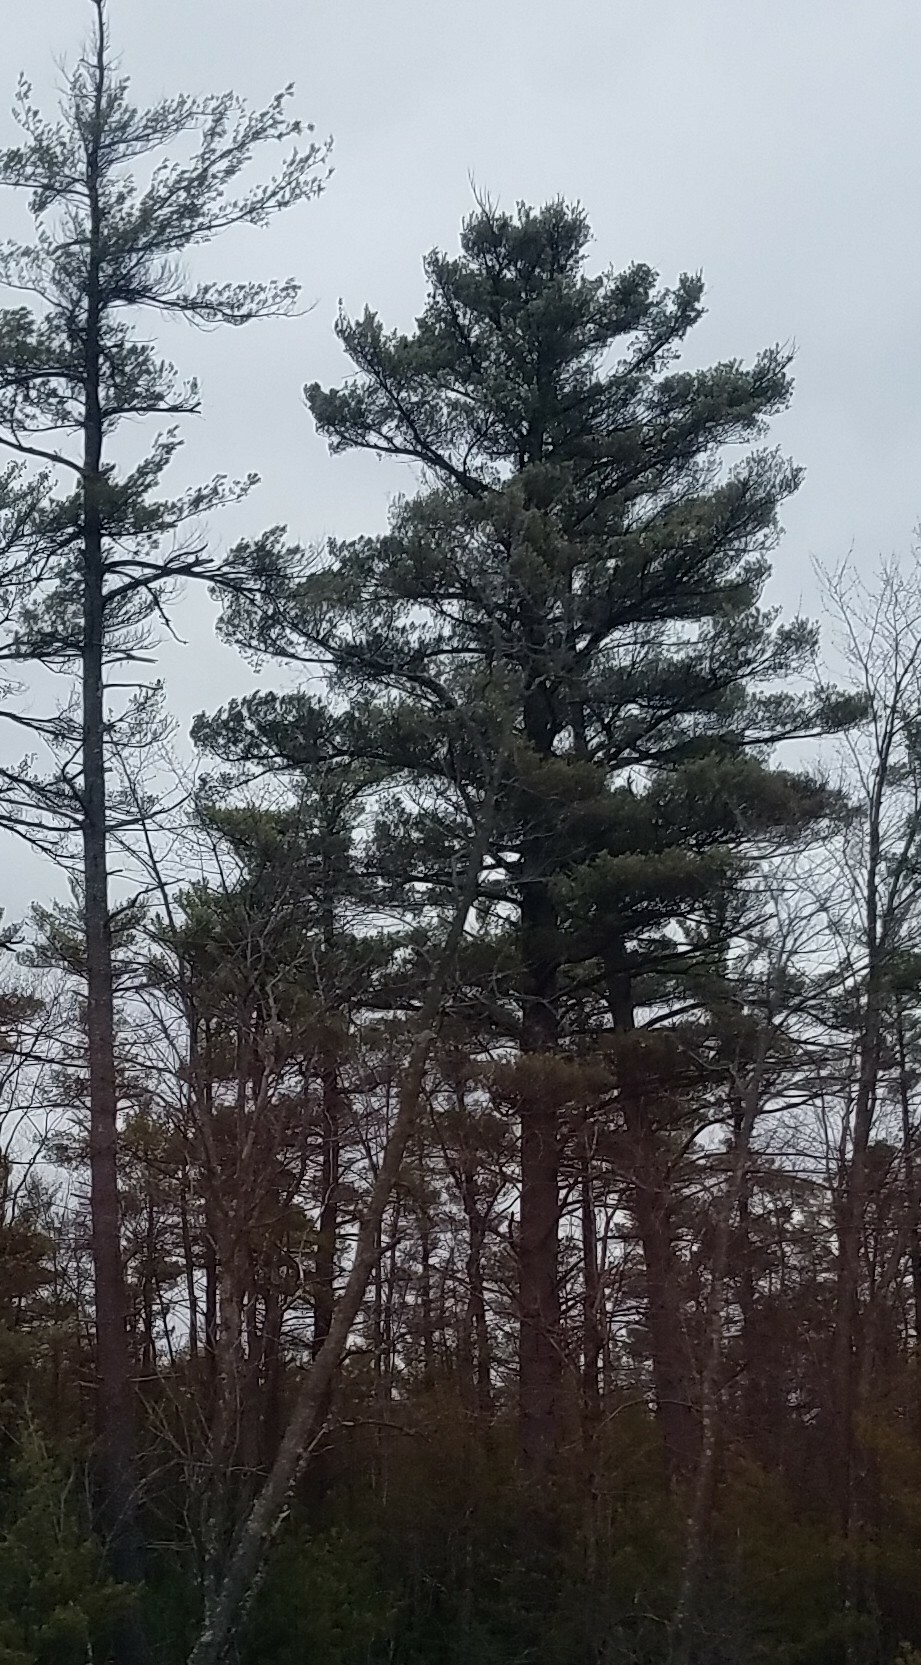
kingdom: Plantae
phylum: Tracheophyta
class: Pinopsida
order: Pinales
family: Pinaceae
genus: Pinus
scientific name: Pinus strobus
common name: Weymouth pine
